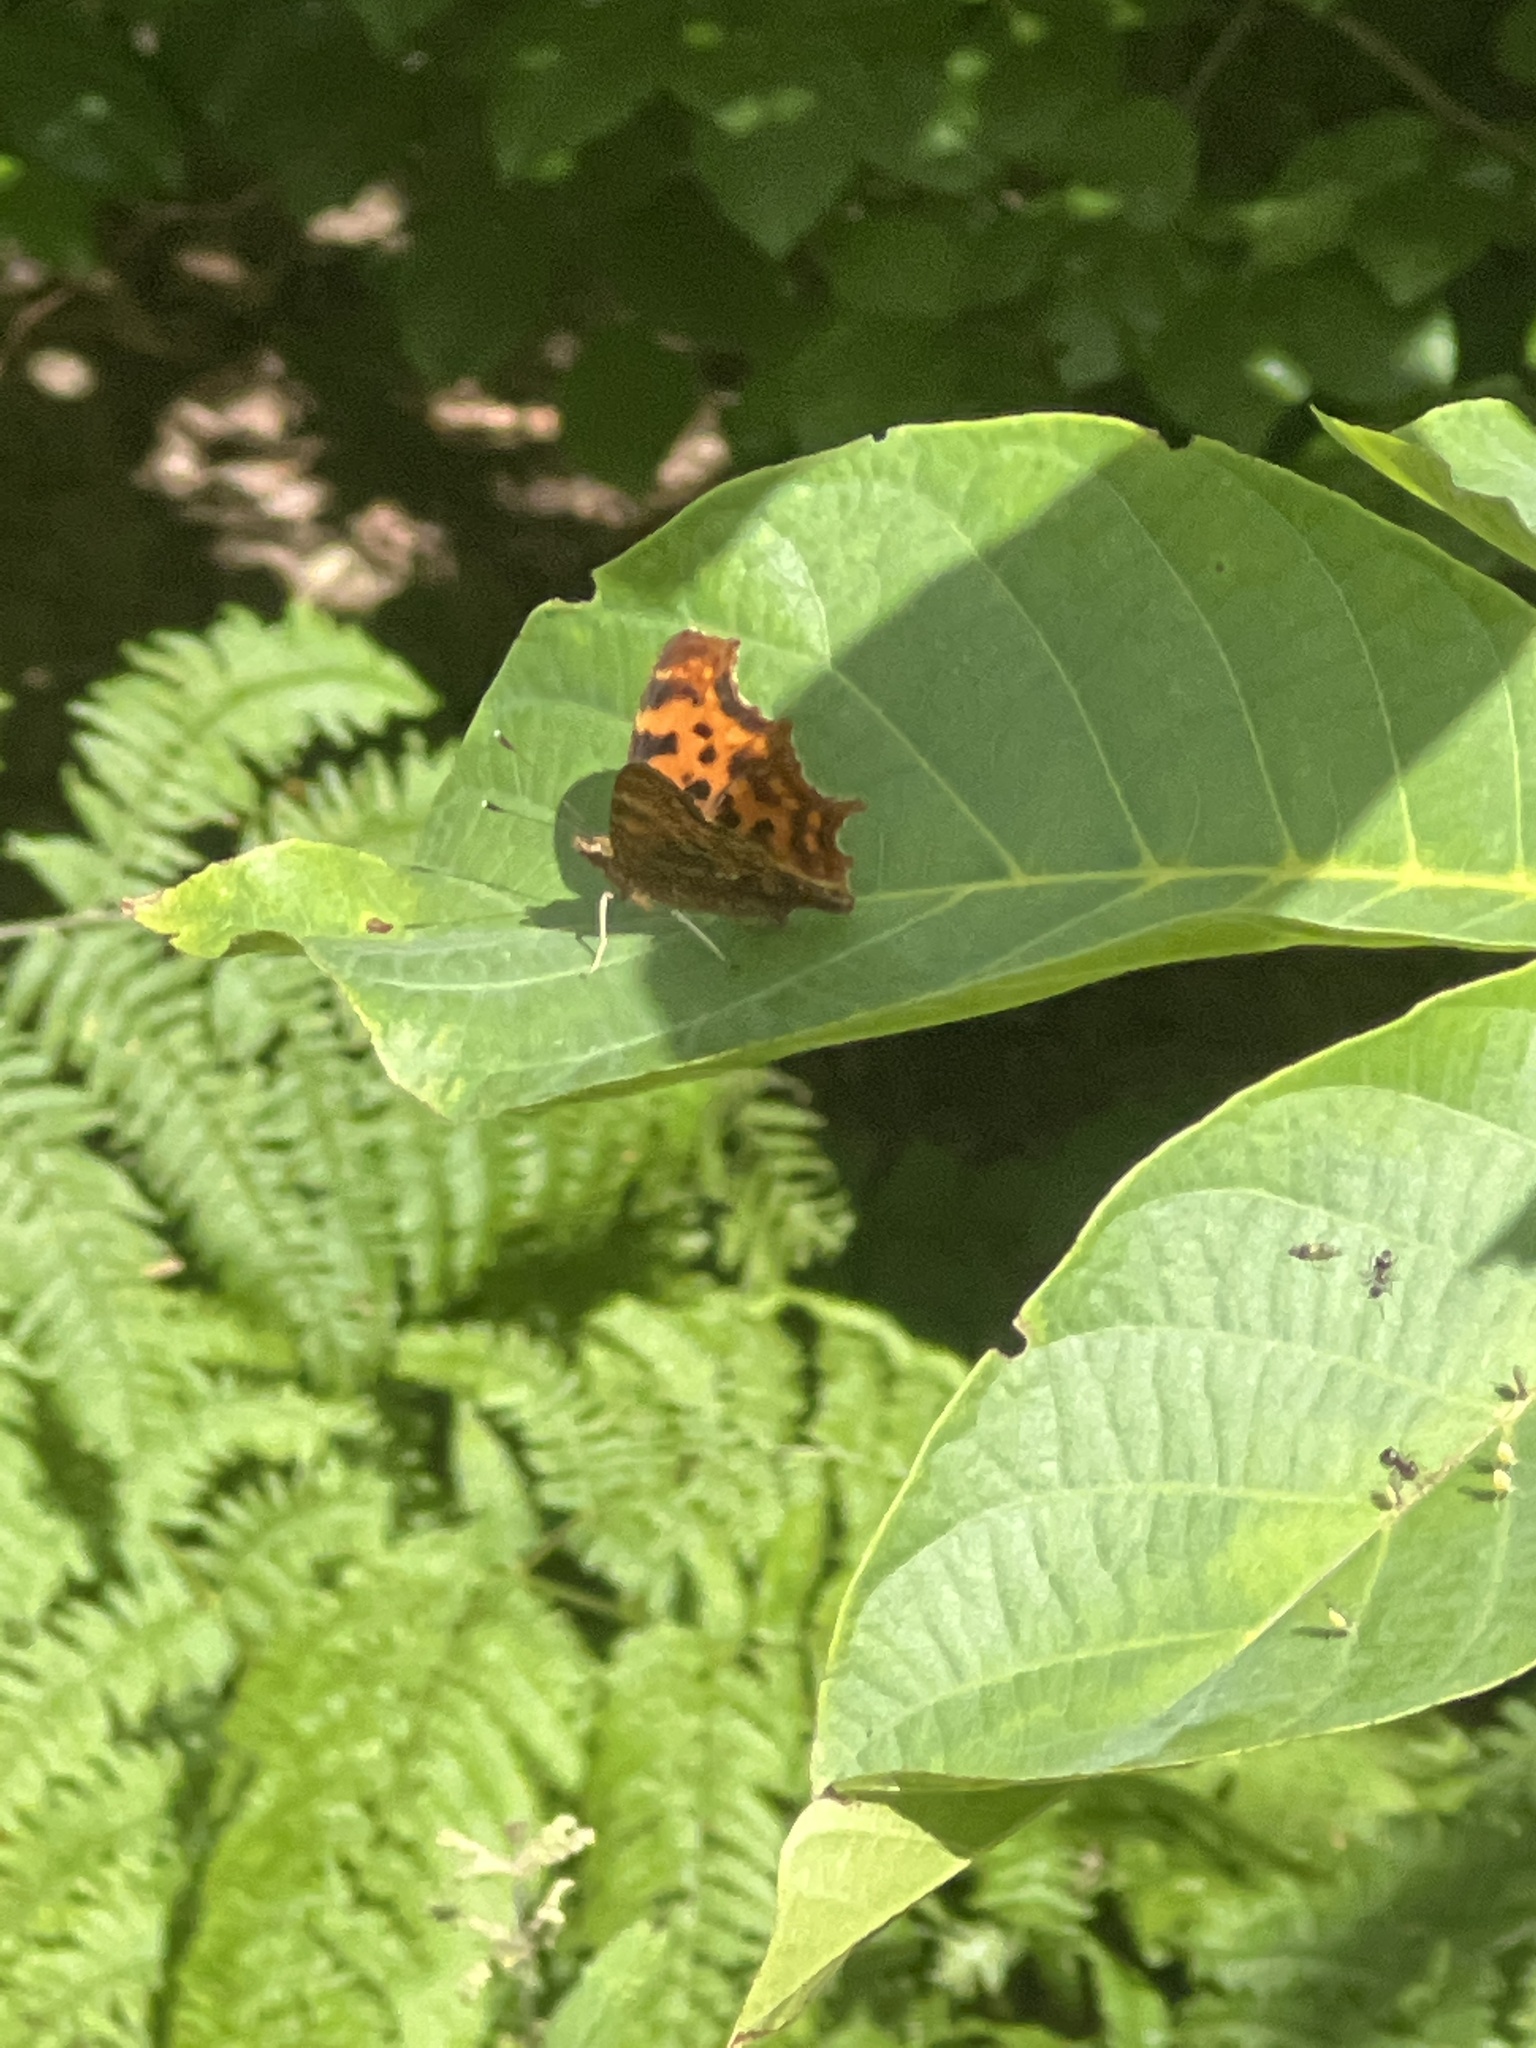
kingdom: Animalia
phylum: Arthropoda
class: Insecta
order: Lepidoptera
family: Nymphalidae
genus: Polygonia
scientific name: Polygonia c-album
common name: Comma
